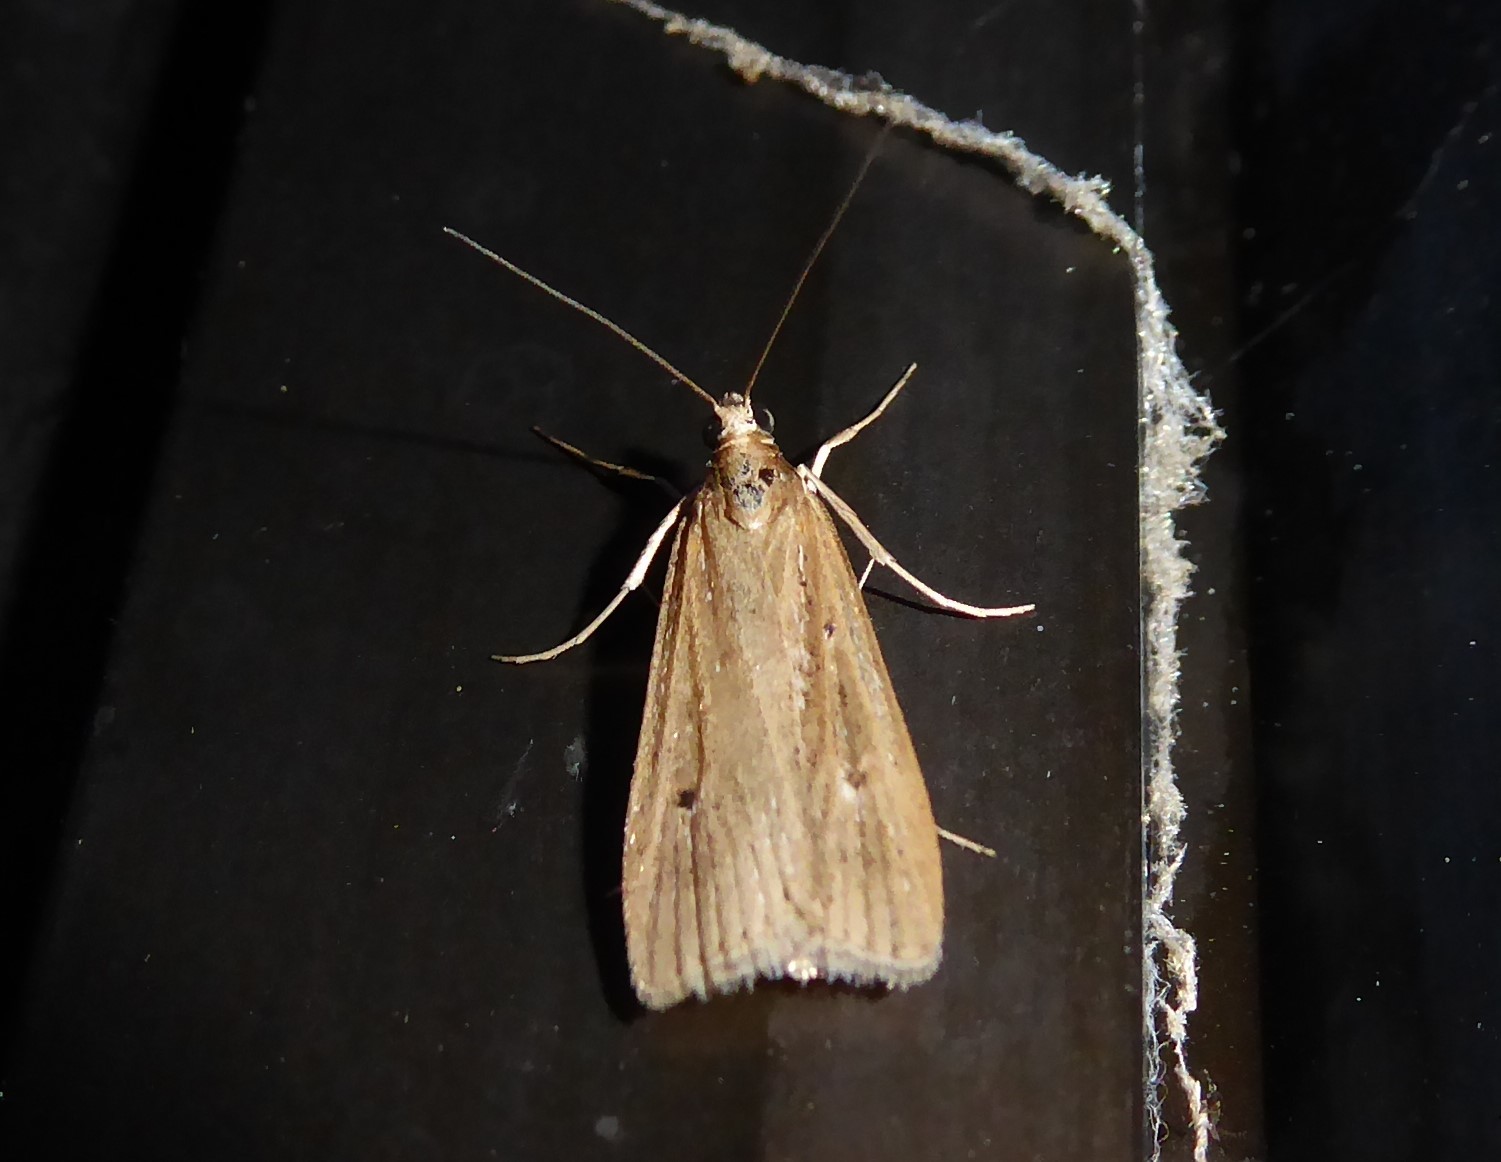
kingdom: Animalia
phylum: Arthropoda
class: Insecta
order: Lepidoptera
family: Crambidae
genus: Eudonia
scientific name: Eudonia sabulosella
